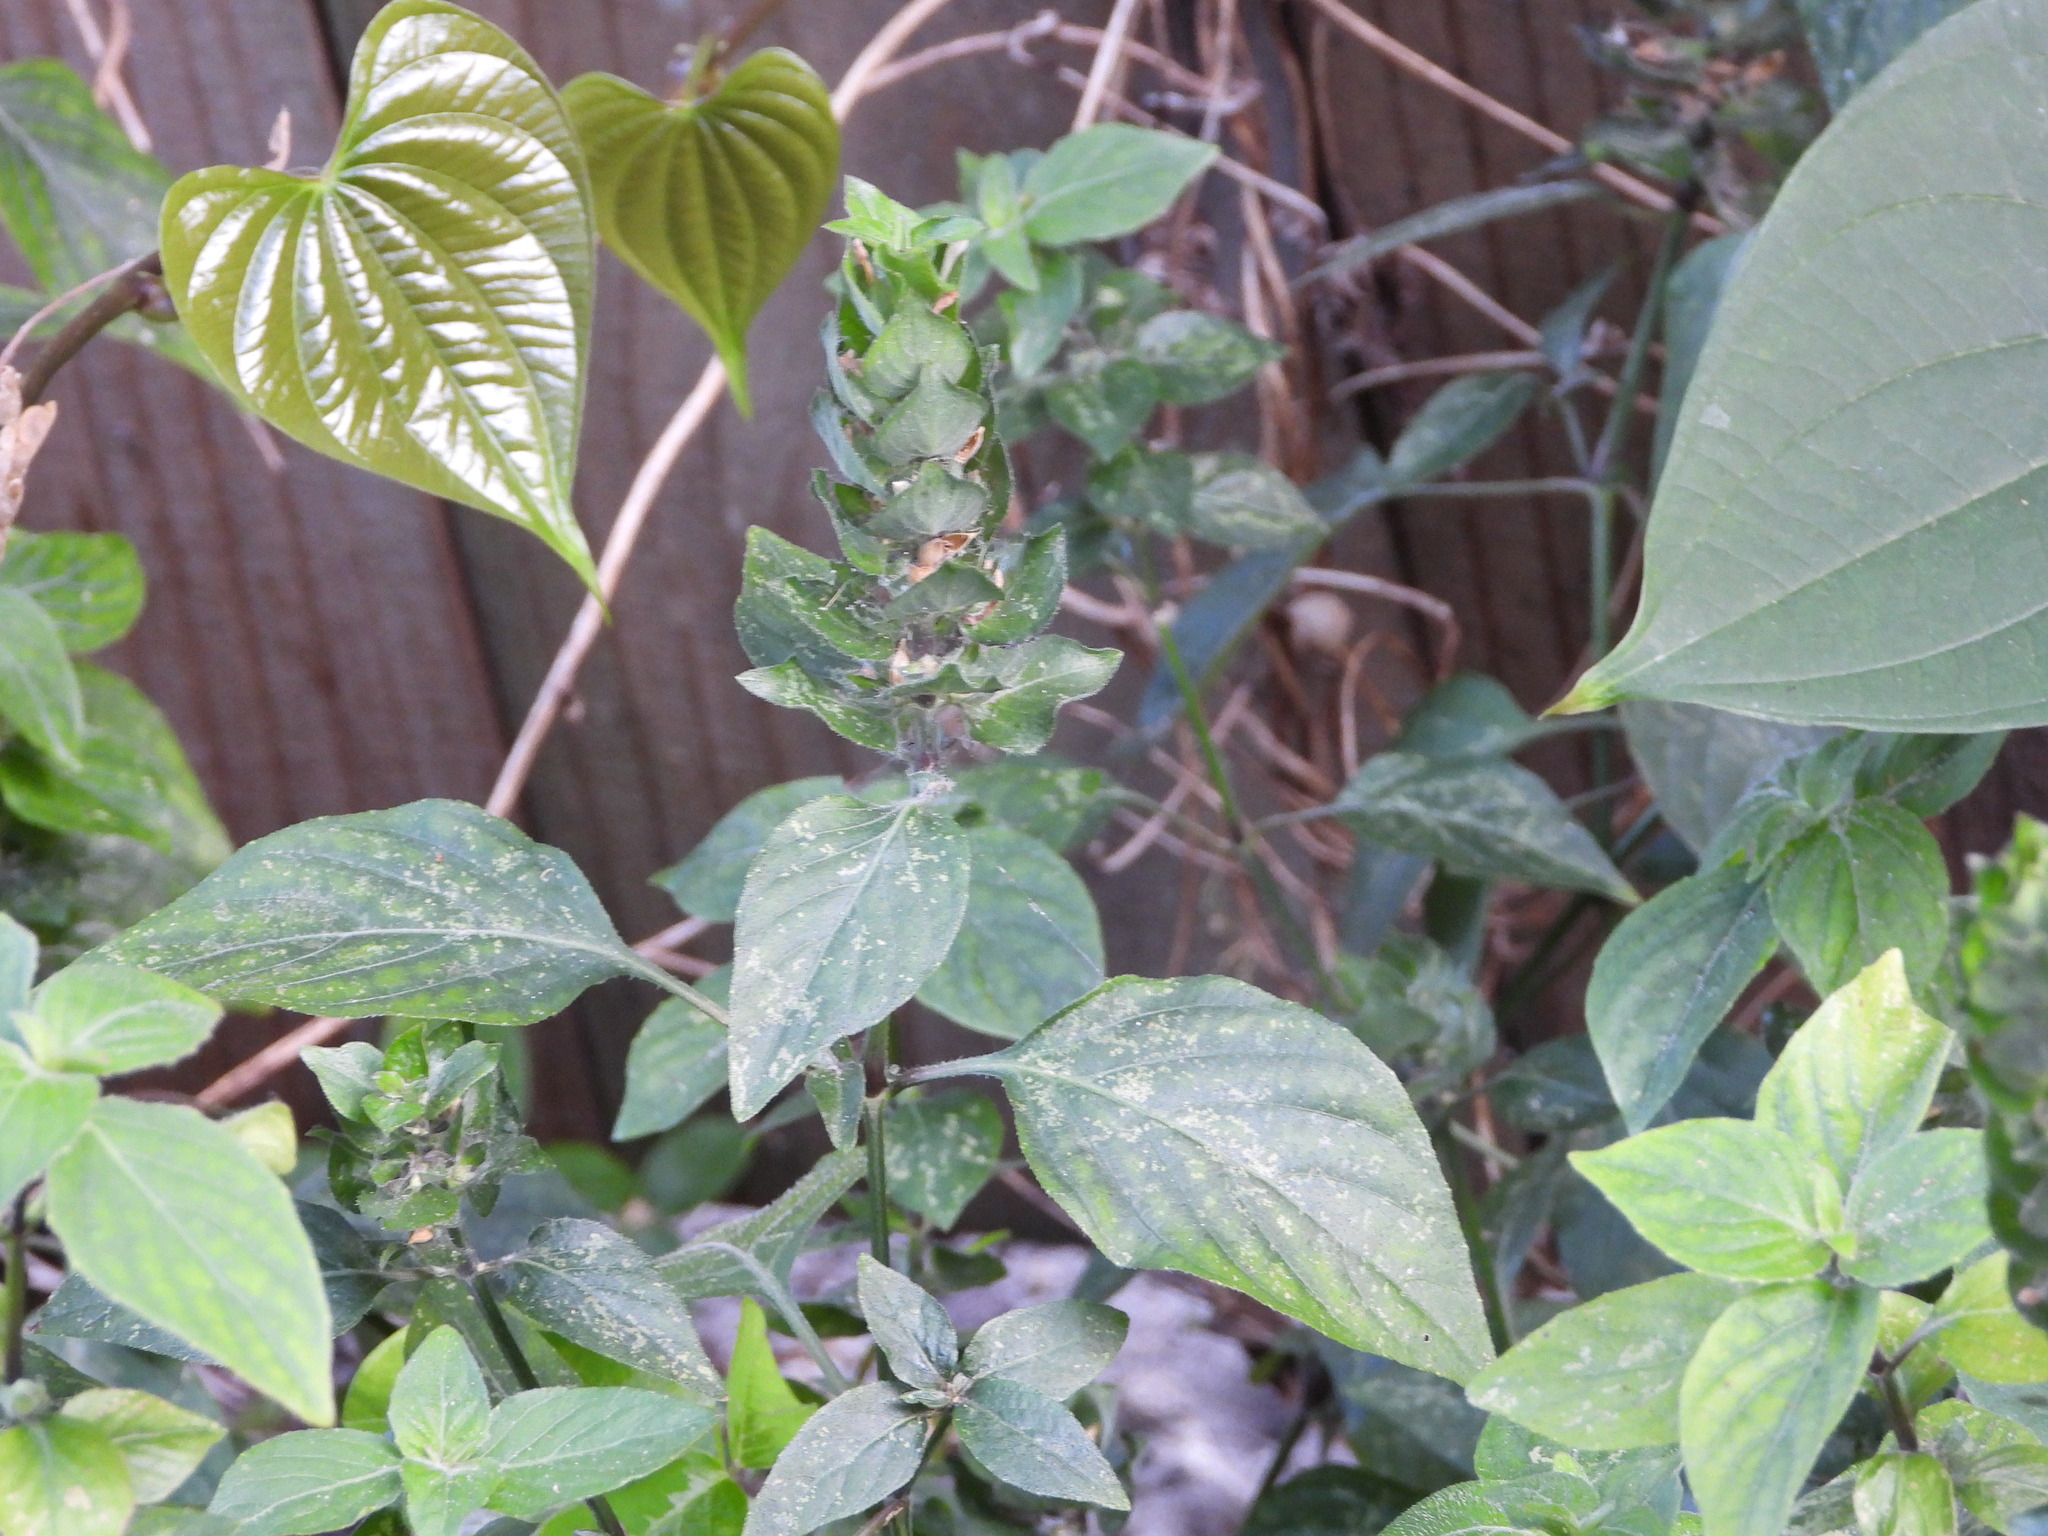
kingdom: Plantae
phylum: Tracheophyta
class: Magnoliopsida
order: Lamiales
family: Acanthaceae
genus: Ruellia
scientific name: Ruellia blechum
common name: Browne's blechum
